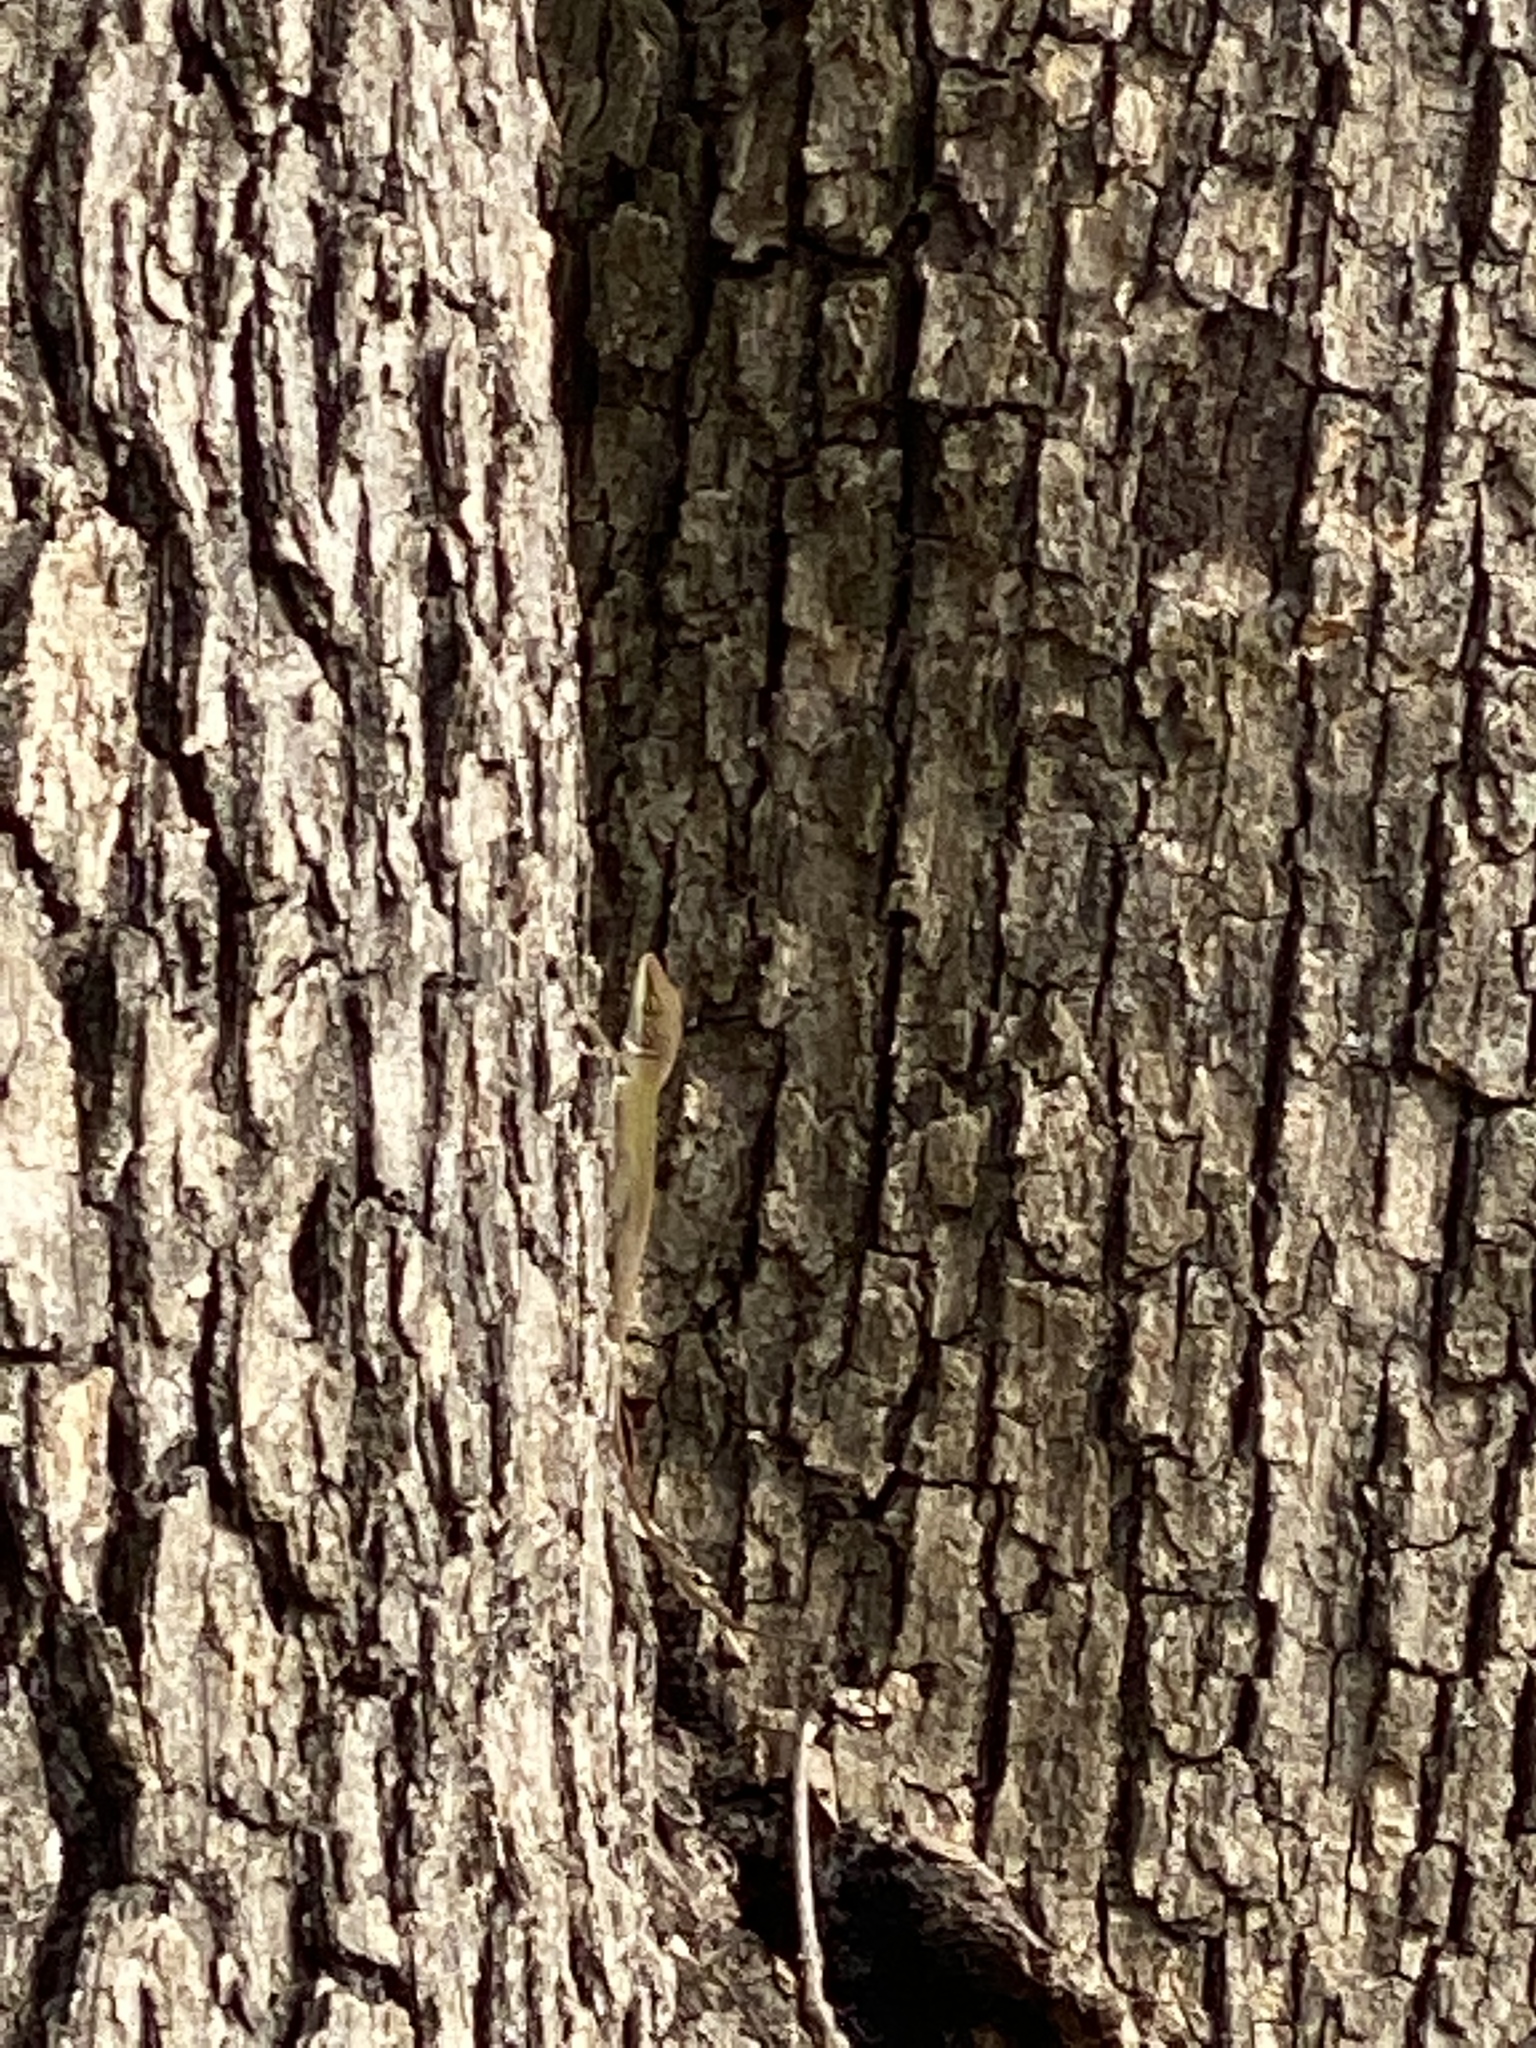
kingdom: Animalia
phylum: Chordata
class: Squamata
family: Dactyloidae
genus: Anolis
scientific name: Anolis carolinensis
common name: Green anole
